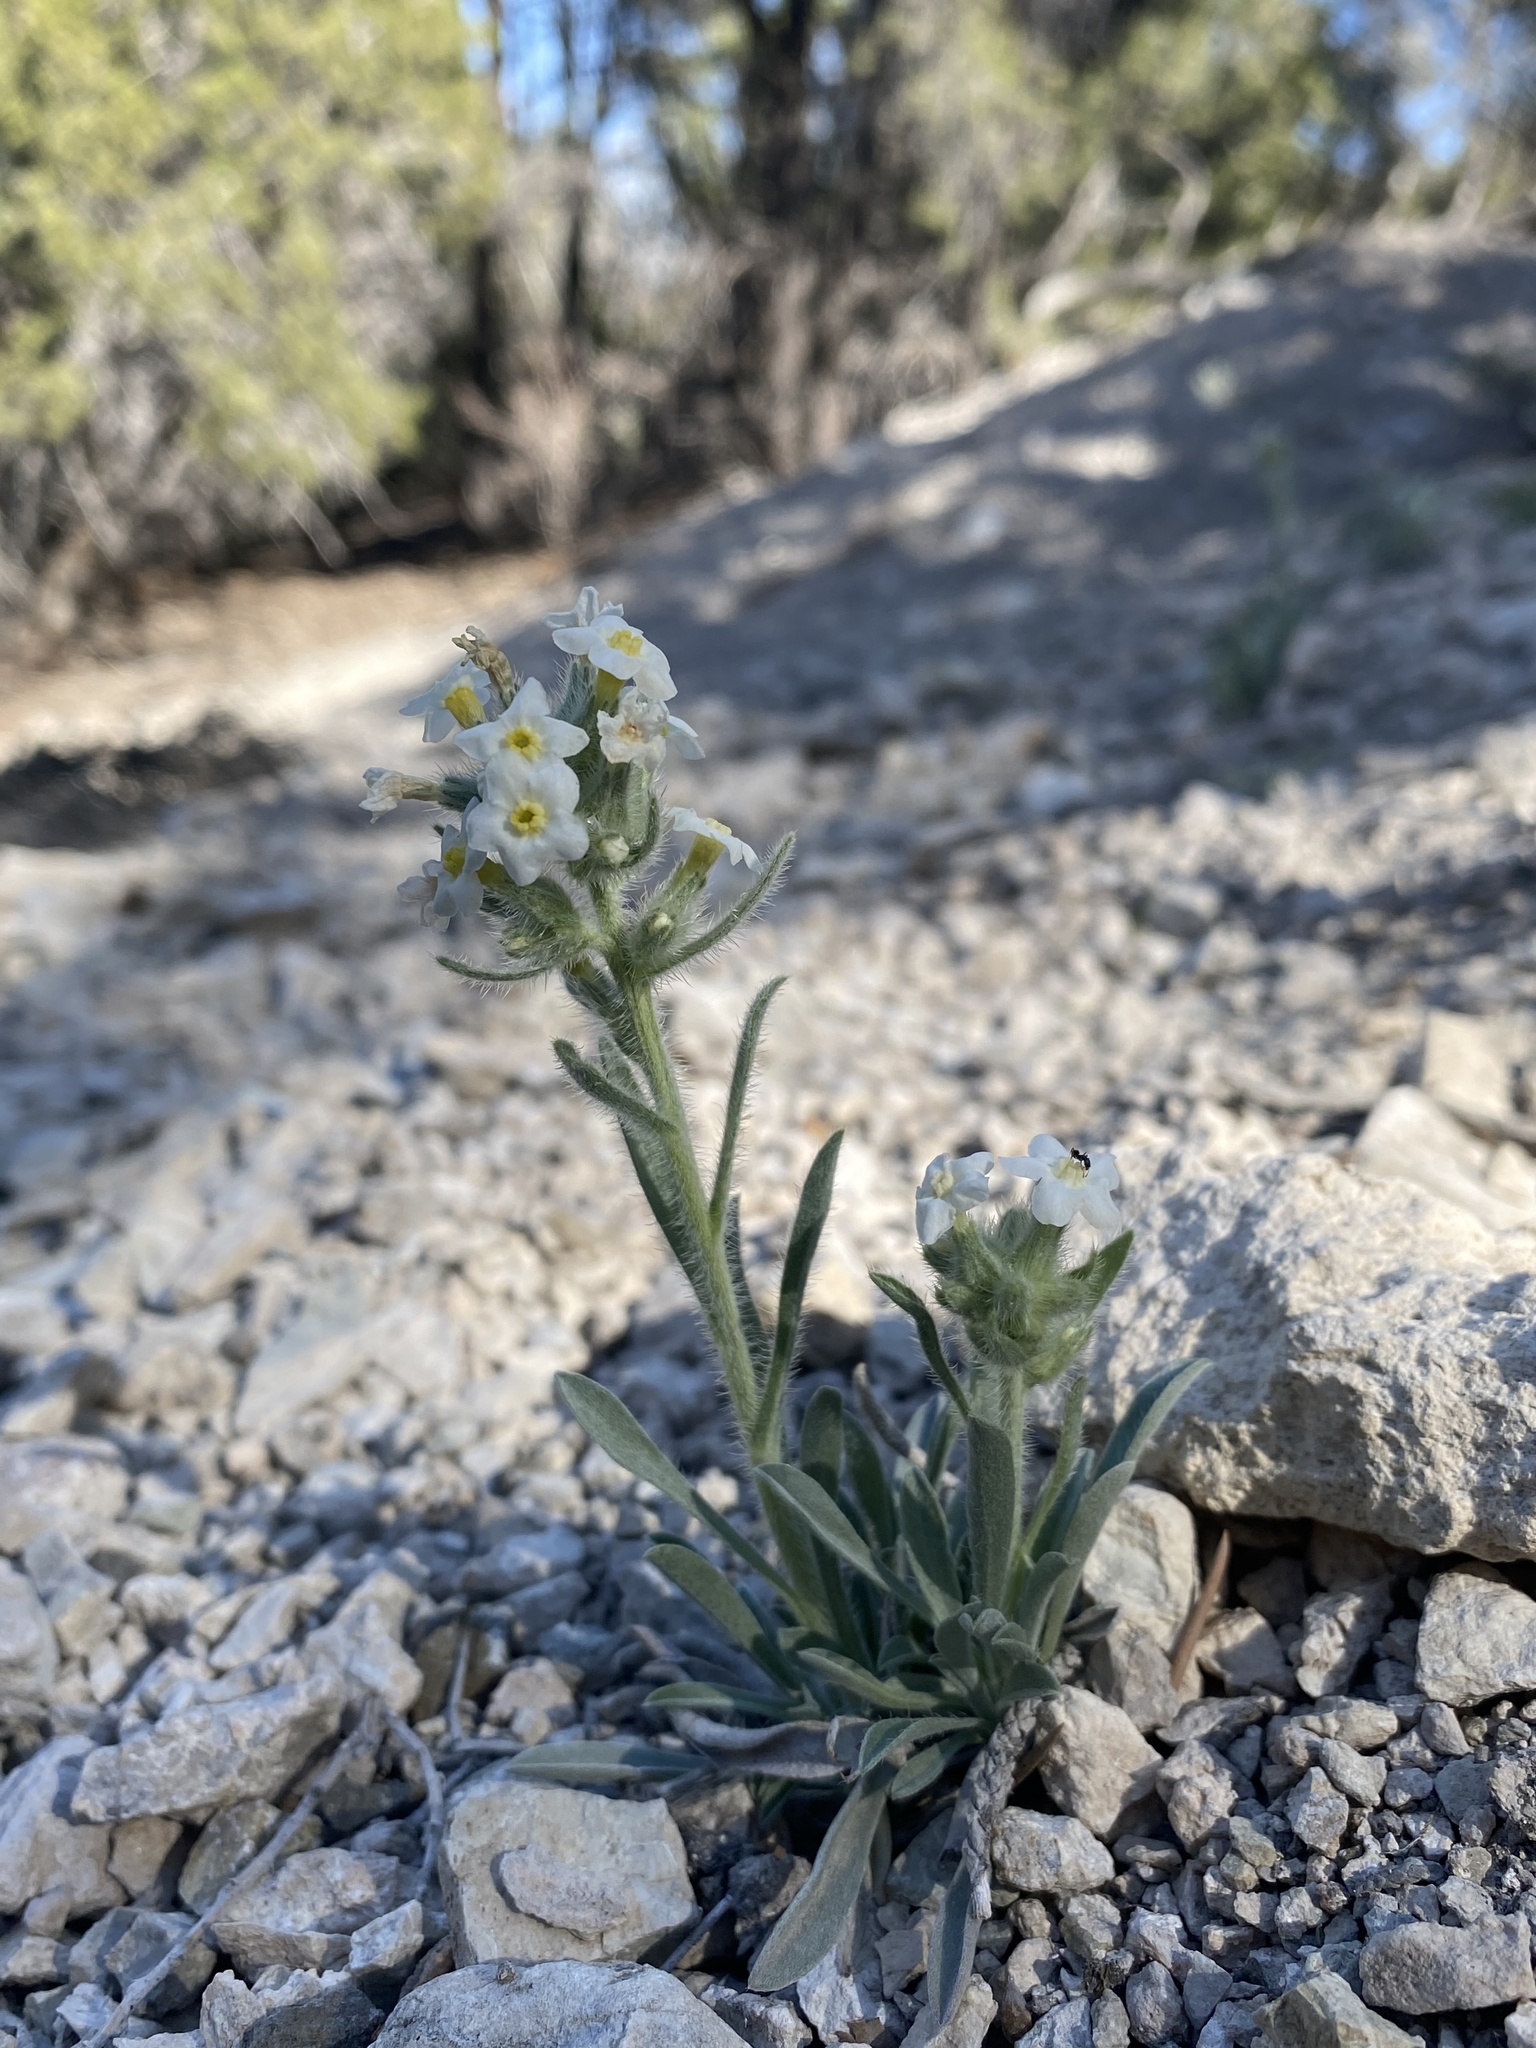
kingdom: Plantae
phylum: Tracheophyta
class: Magnoliopsida
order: Boraginales
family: Boraginaceae
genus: Oreocarya
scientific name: Oreocarya flavoculata
